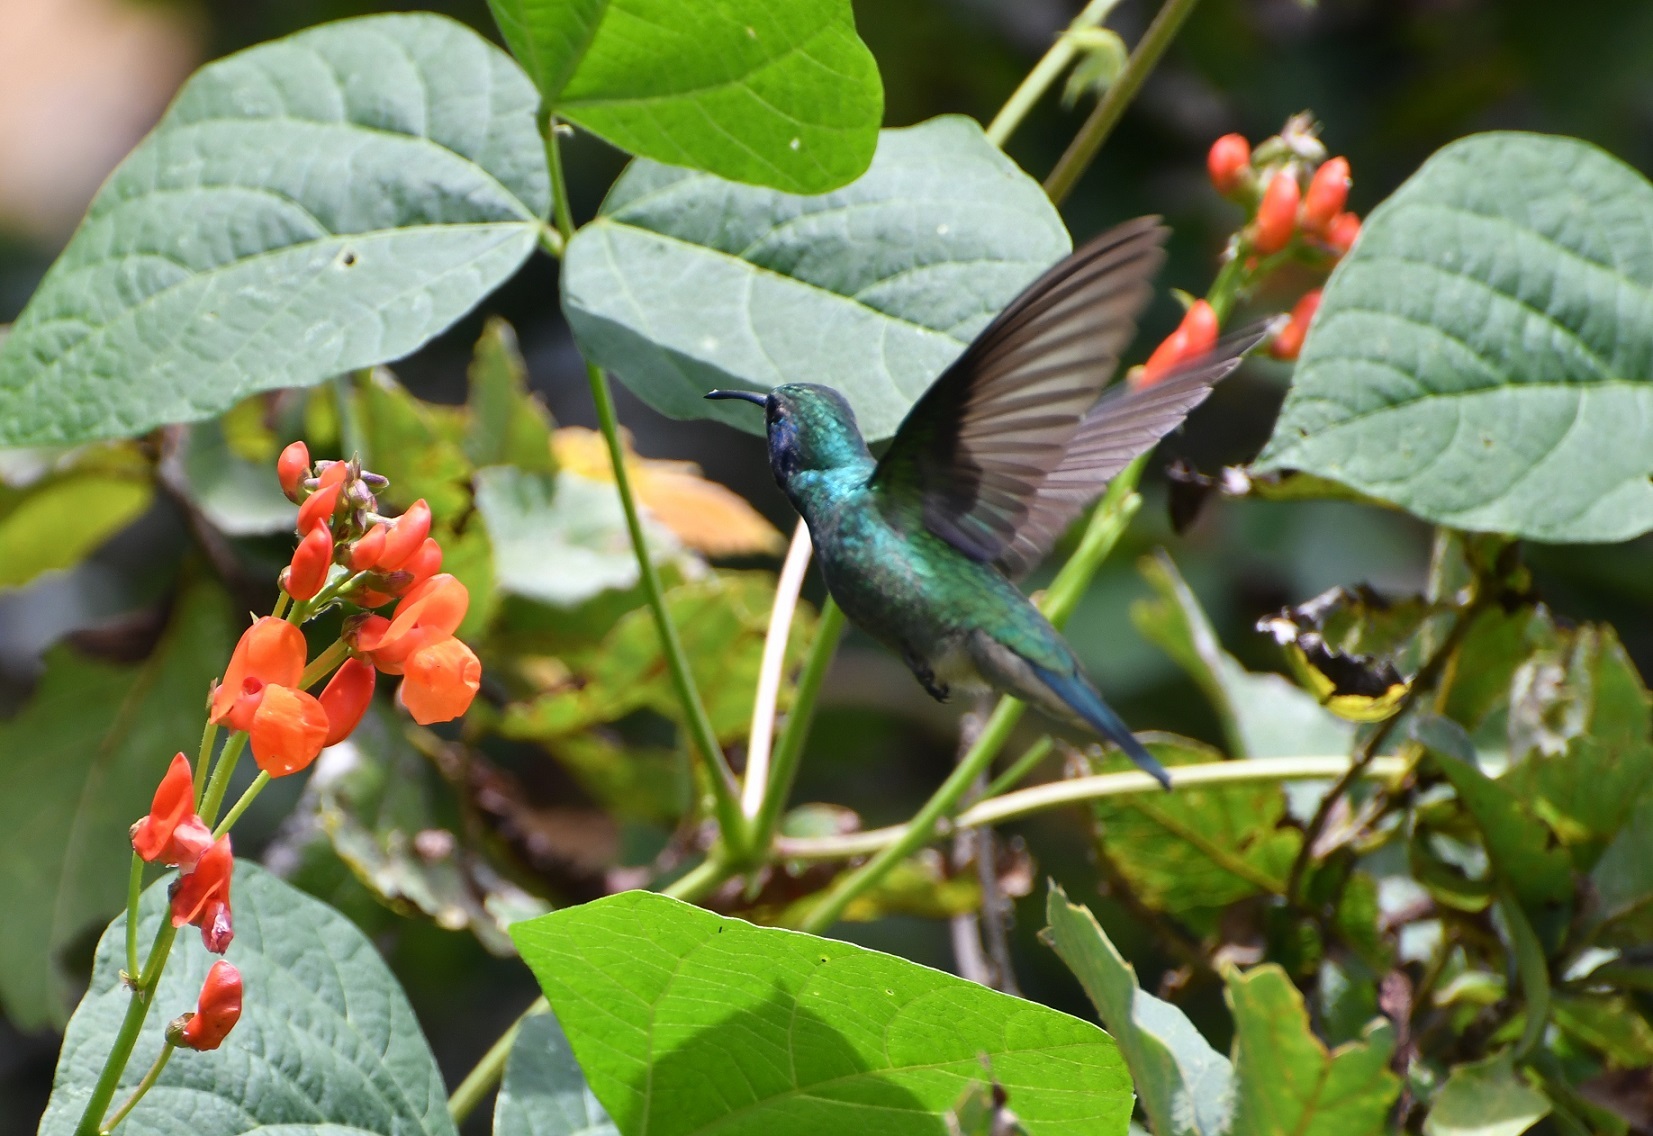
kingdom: Animalia
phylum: Chordata
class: Aves
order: Apodiformes
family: Trochilidae
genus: Colibri
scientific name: Colibri thalassinus
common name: Green violetear
